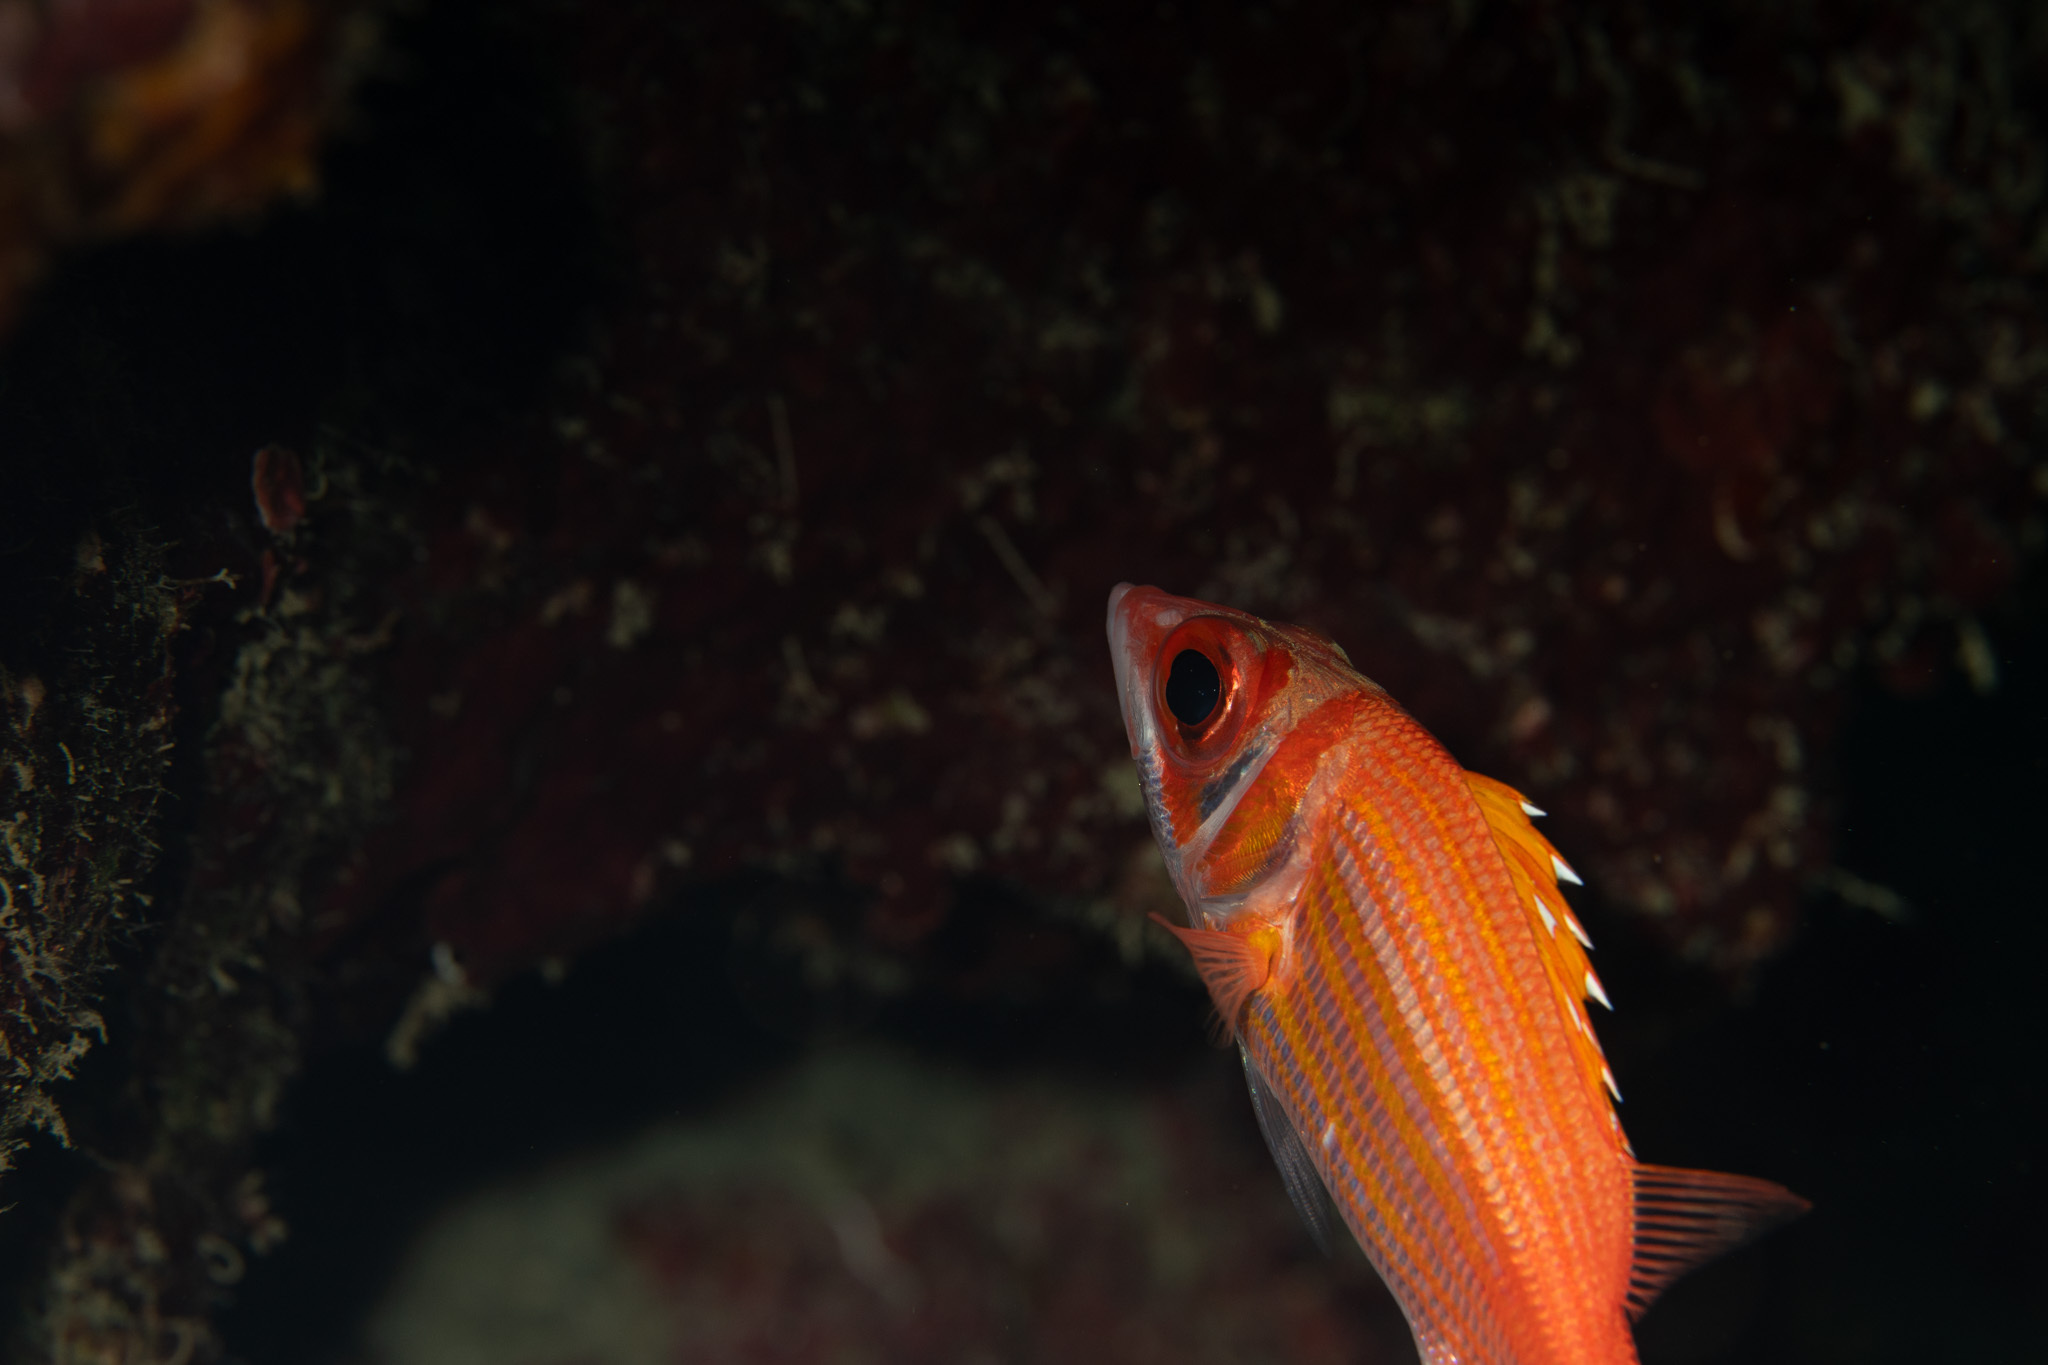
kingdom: Animalia
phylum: Chordata
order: Beryciformes
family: Holocentridae
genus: Neoniphon
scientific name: Neoniphon marianus
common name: Longjaw squirrelfish
